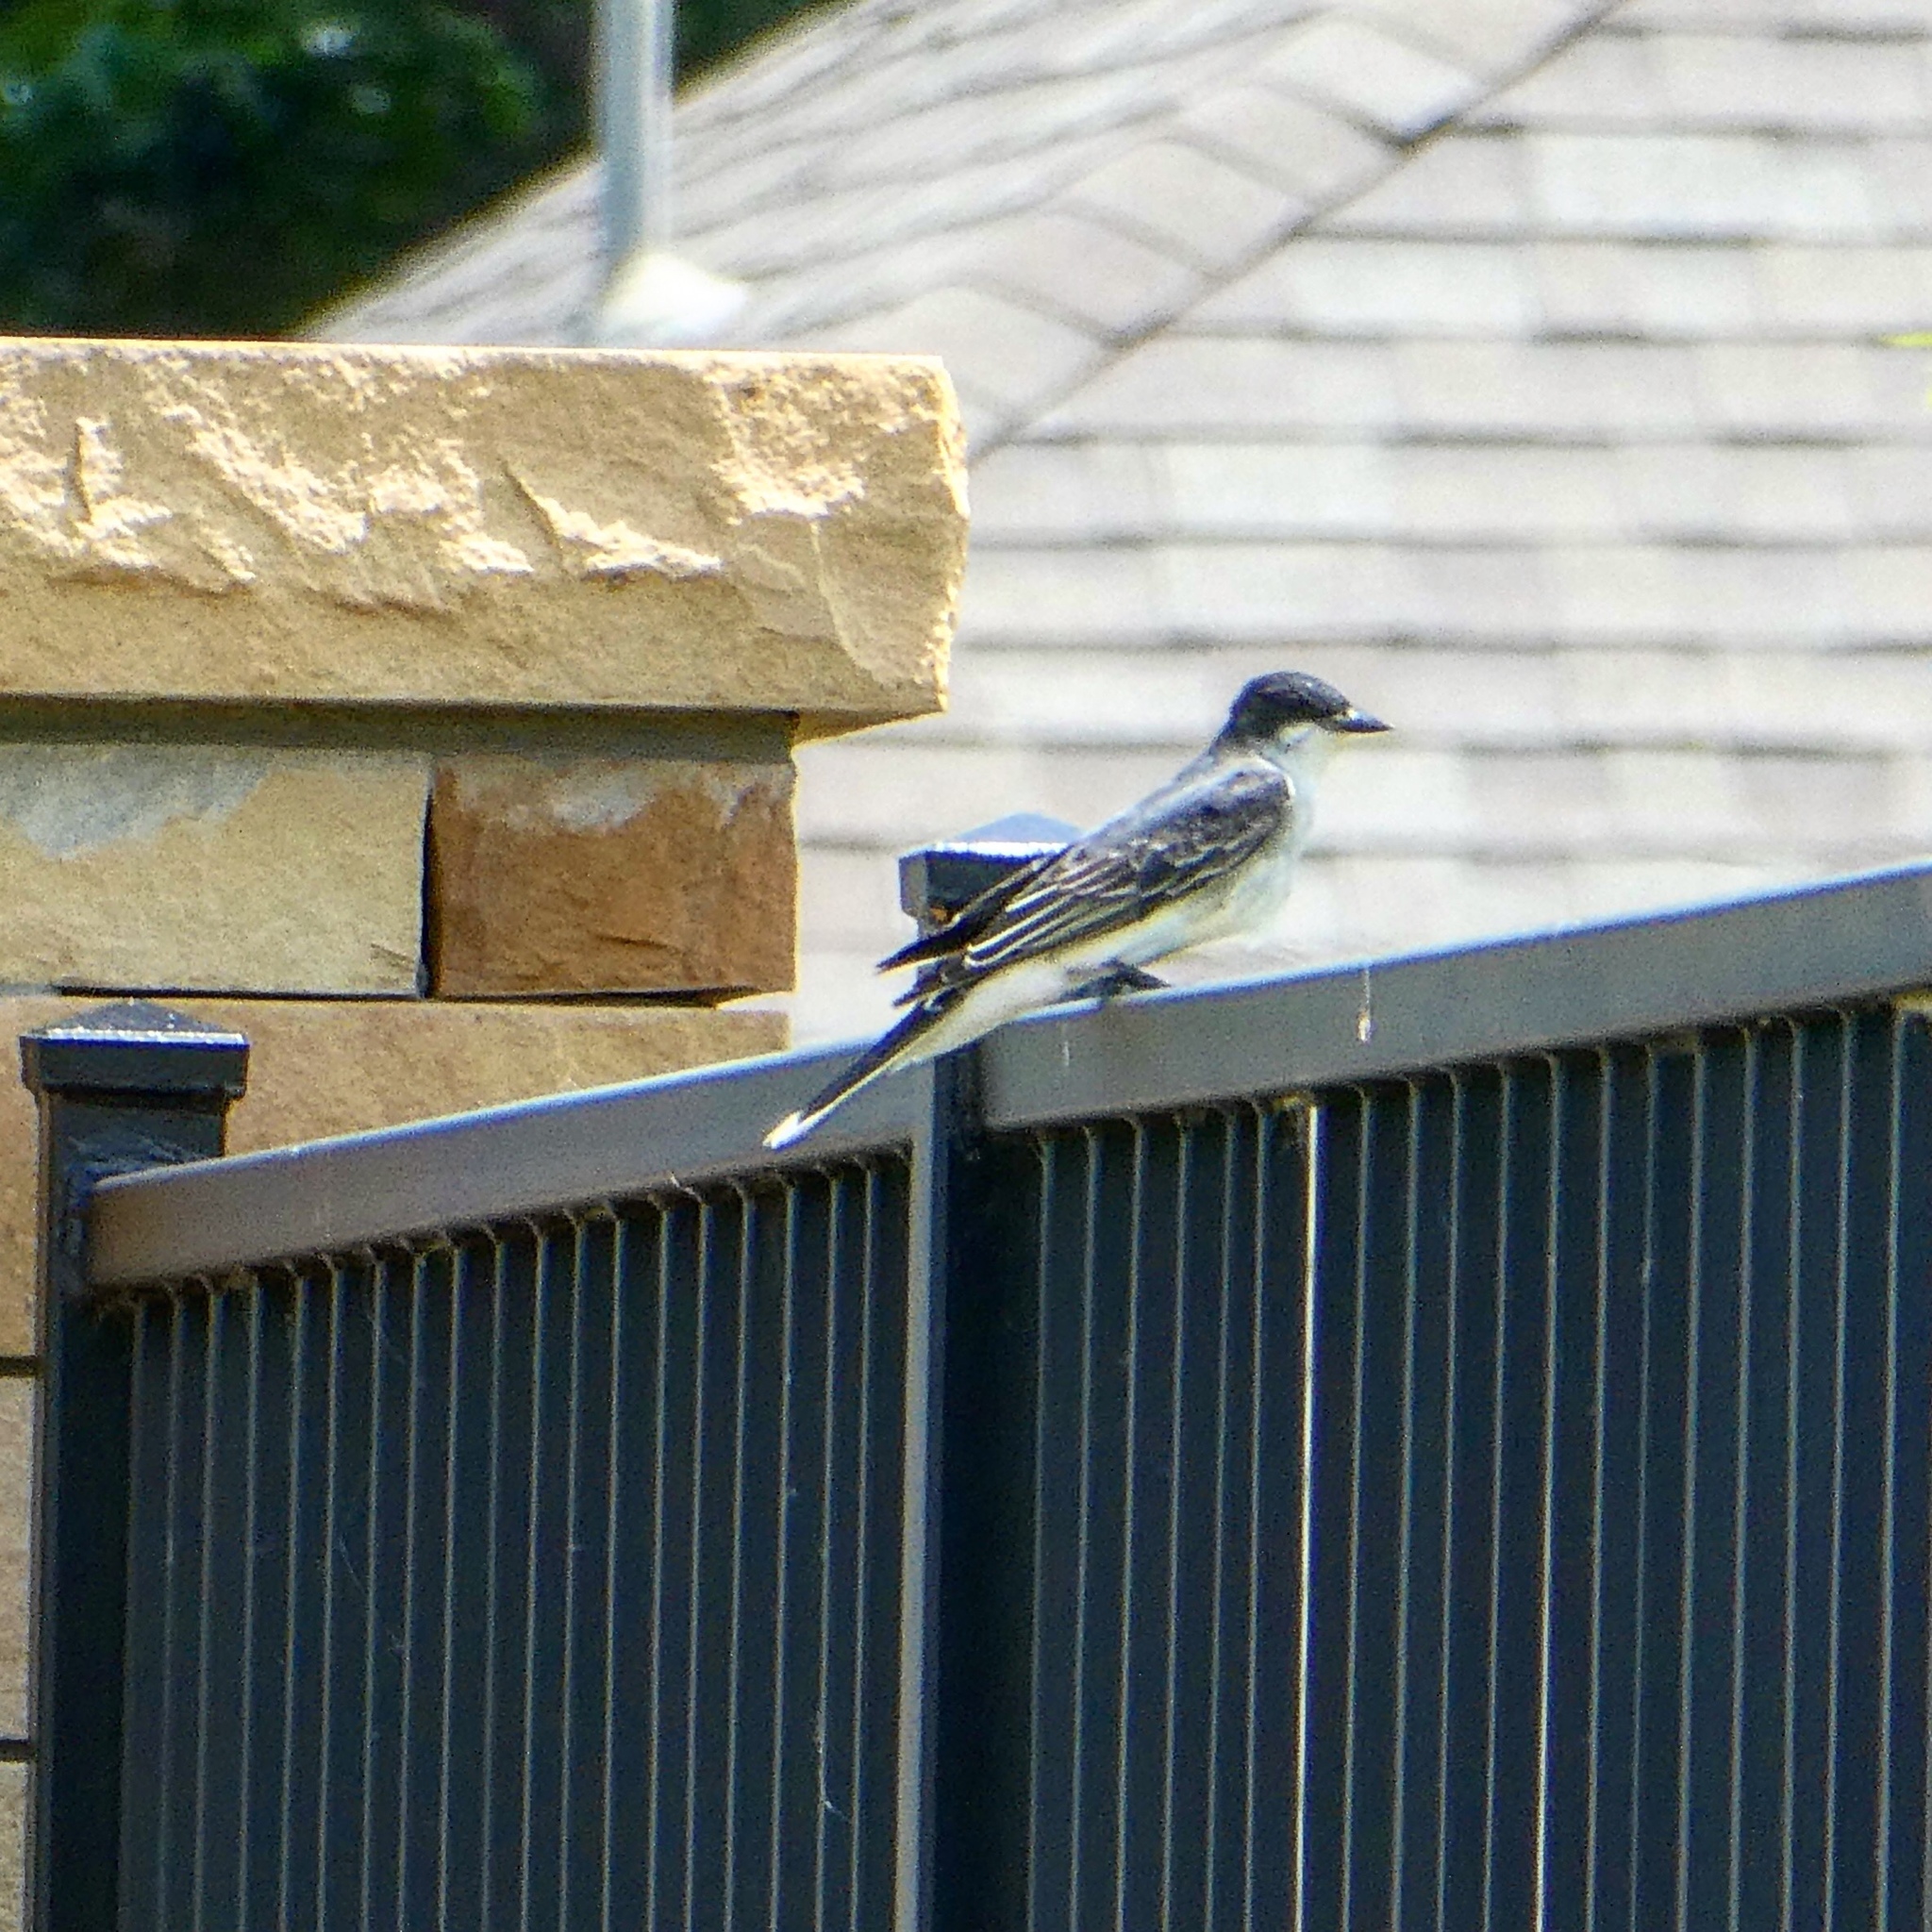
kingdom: Animalia
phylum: Chordata
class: Aves
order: Passeriformes
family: Tyrannidae
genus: Tyrannus
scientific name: Tyrannus tyrannus
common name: Eastern kingbird
